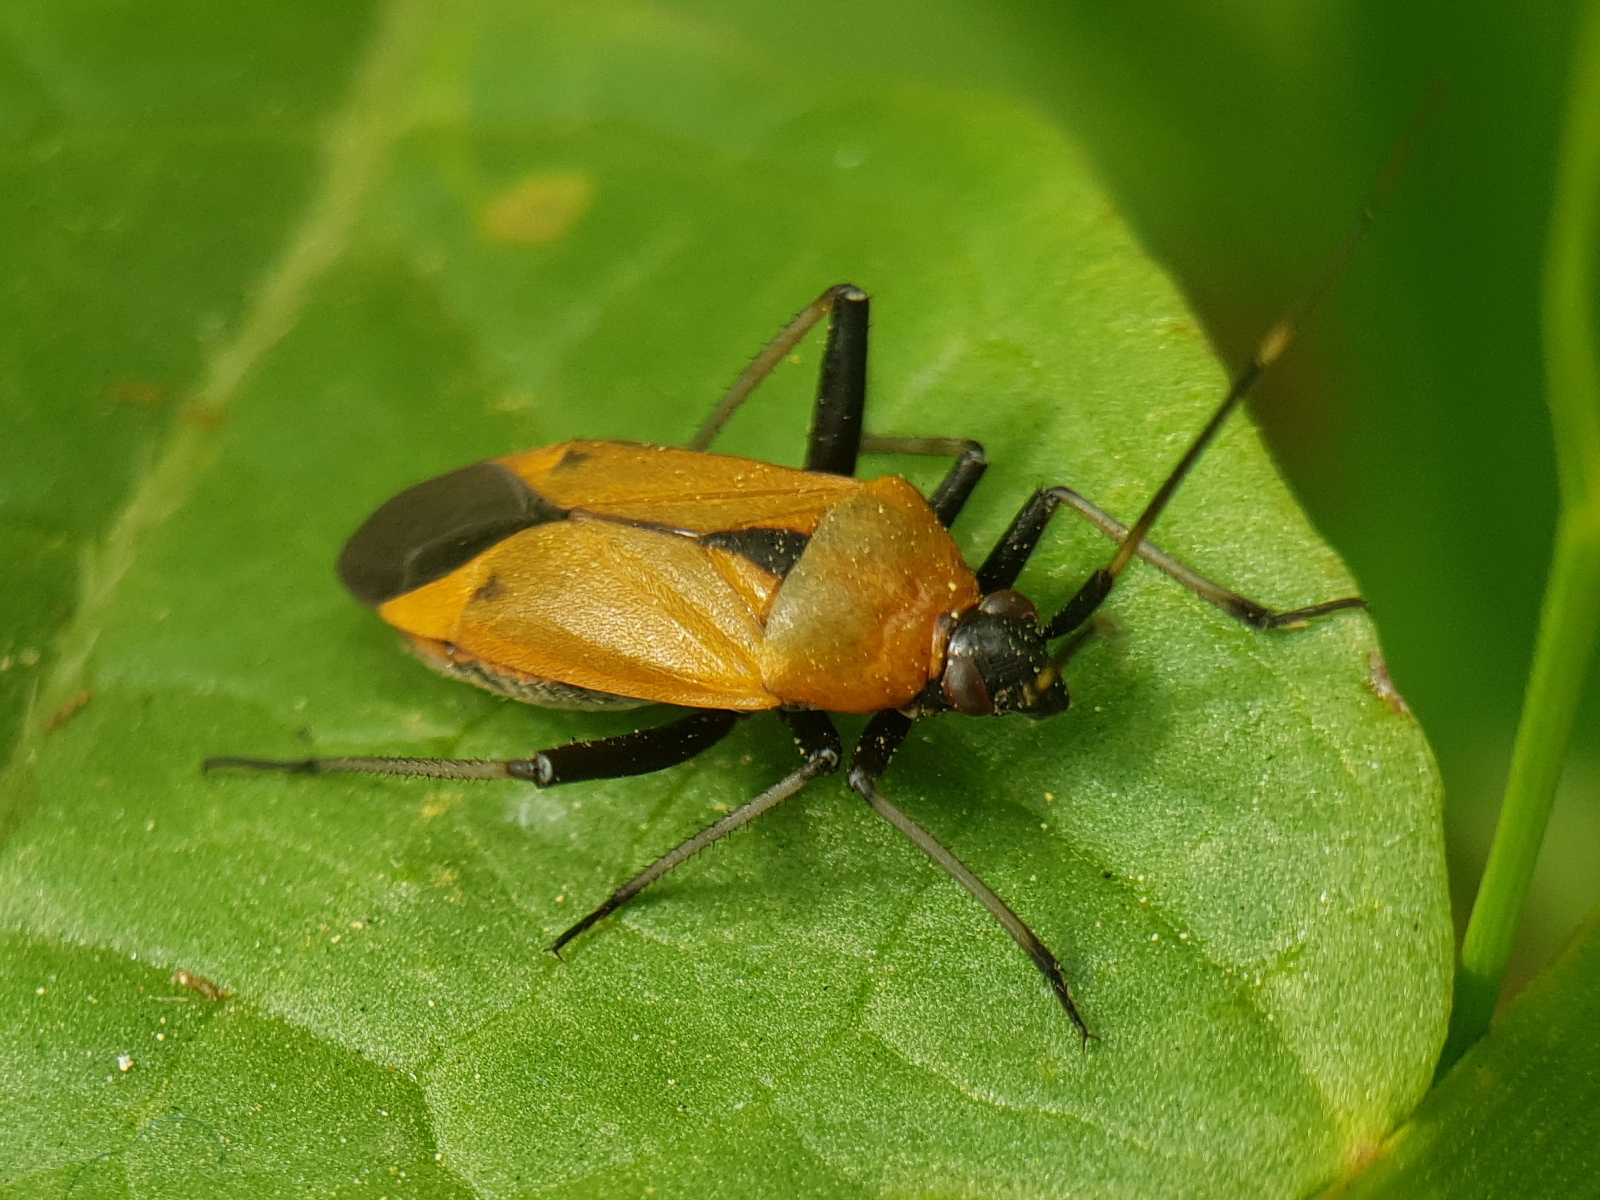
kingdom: Animalia
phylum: Arthropoda
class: Insecta
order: Hemiptera
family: Miridae
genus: Calocoris
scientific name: Calocoris nemoralis
